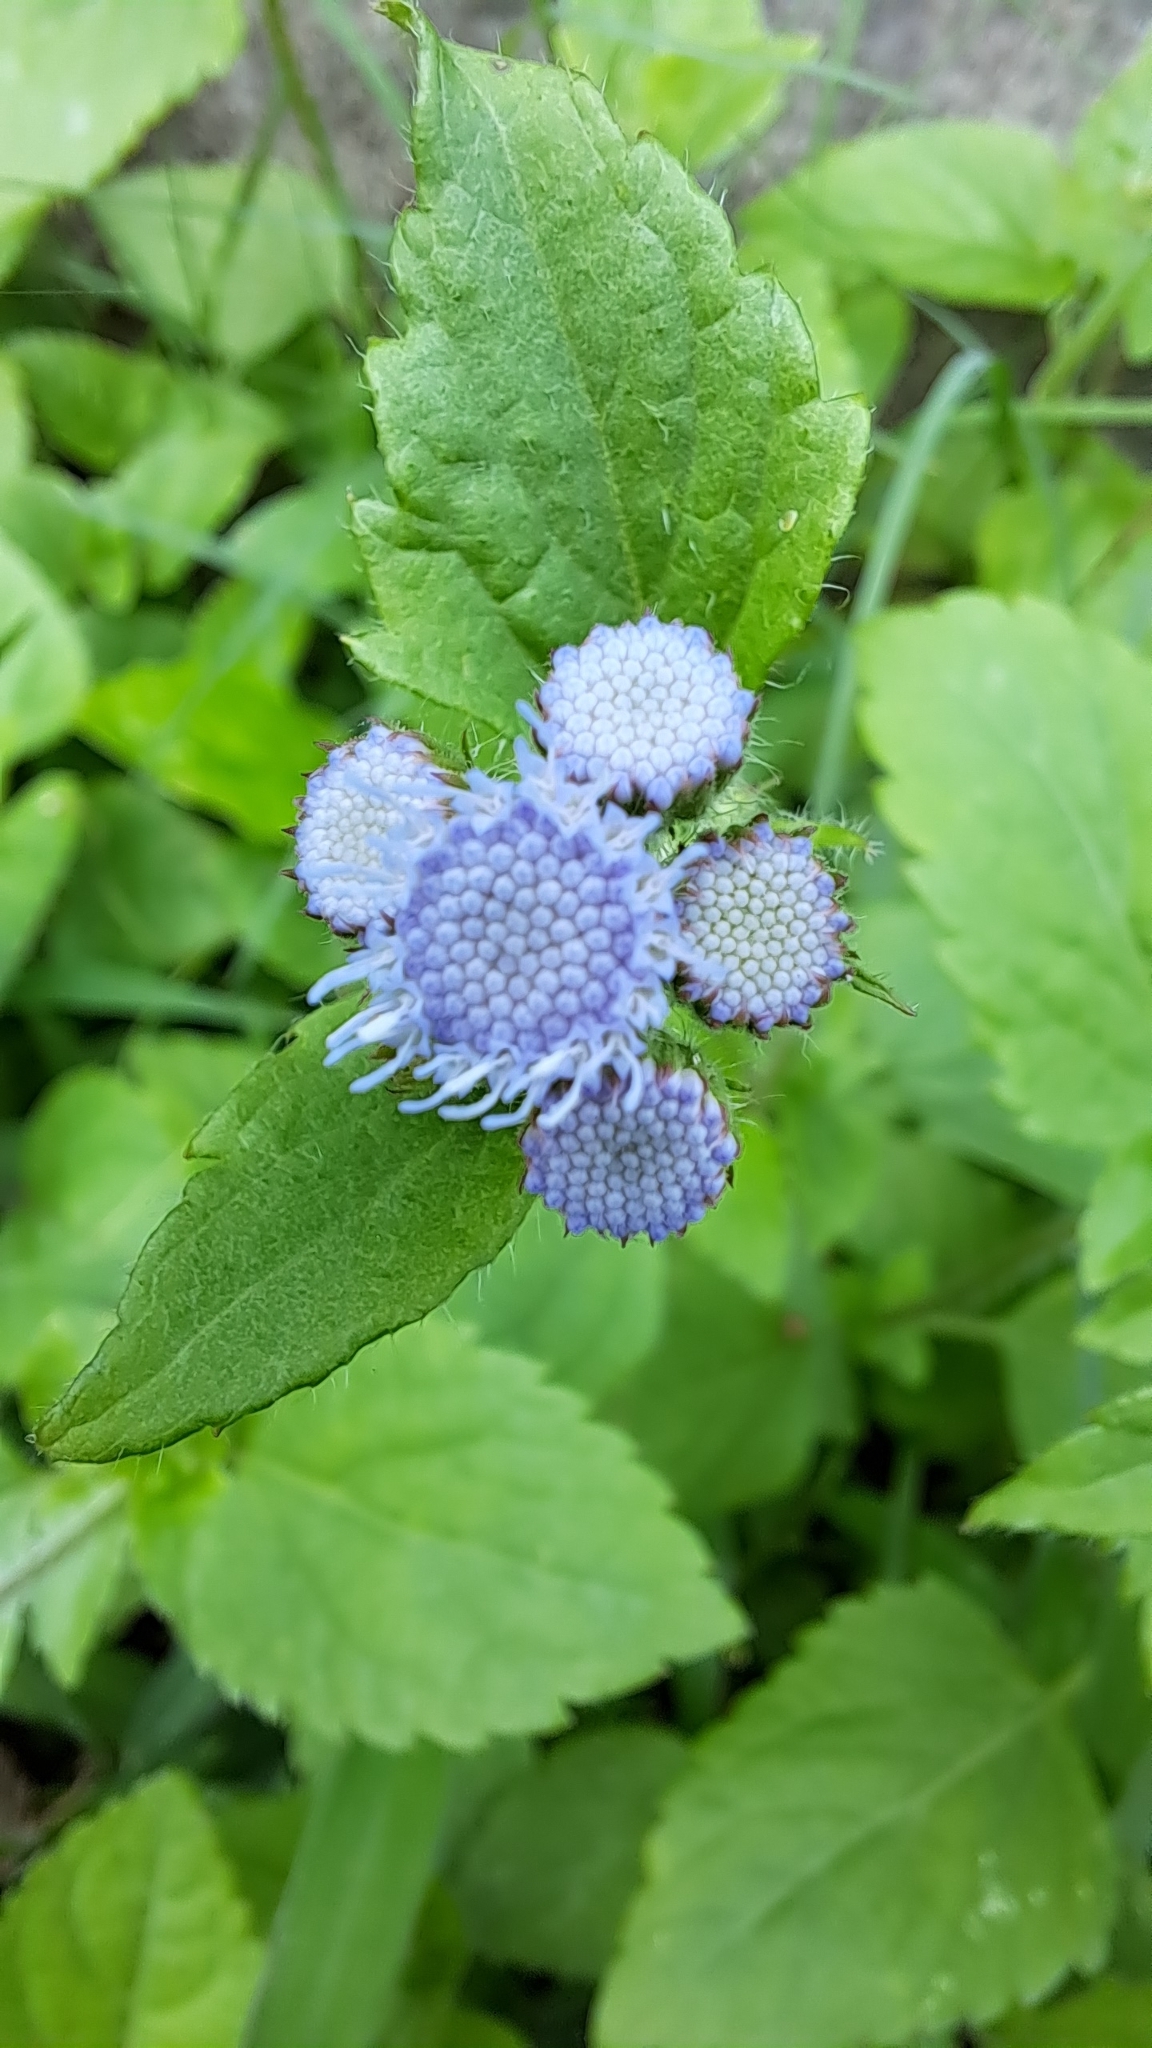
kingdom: Plantae
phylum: Tracheophyta
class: Magnoliopsida
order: Asterales
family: Asteraceae
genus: Ageratum
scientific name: Ageratum houstonianum
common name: Bluemink
